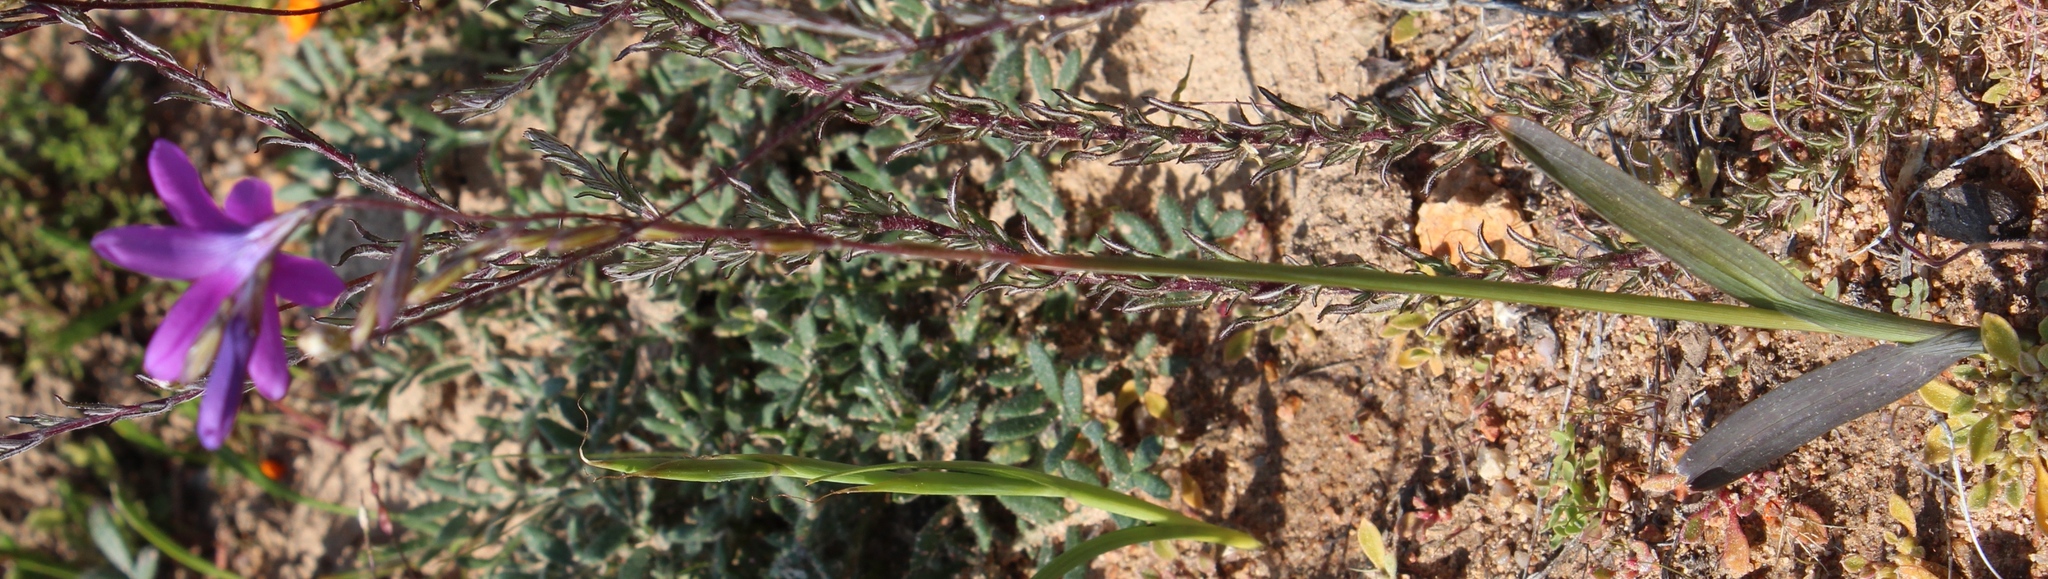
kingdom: Plantae
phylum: Tracheophyta
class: Liliopsida
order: Asparagales
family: Iridaceae
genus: Ixia
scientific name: Ixia ramulosa
